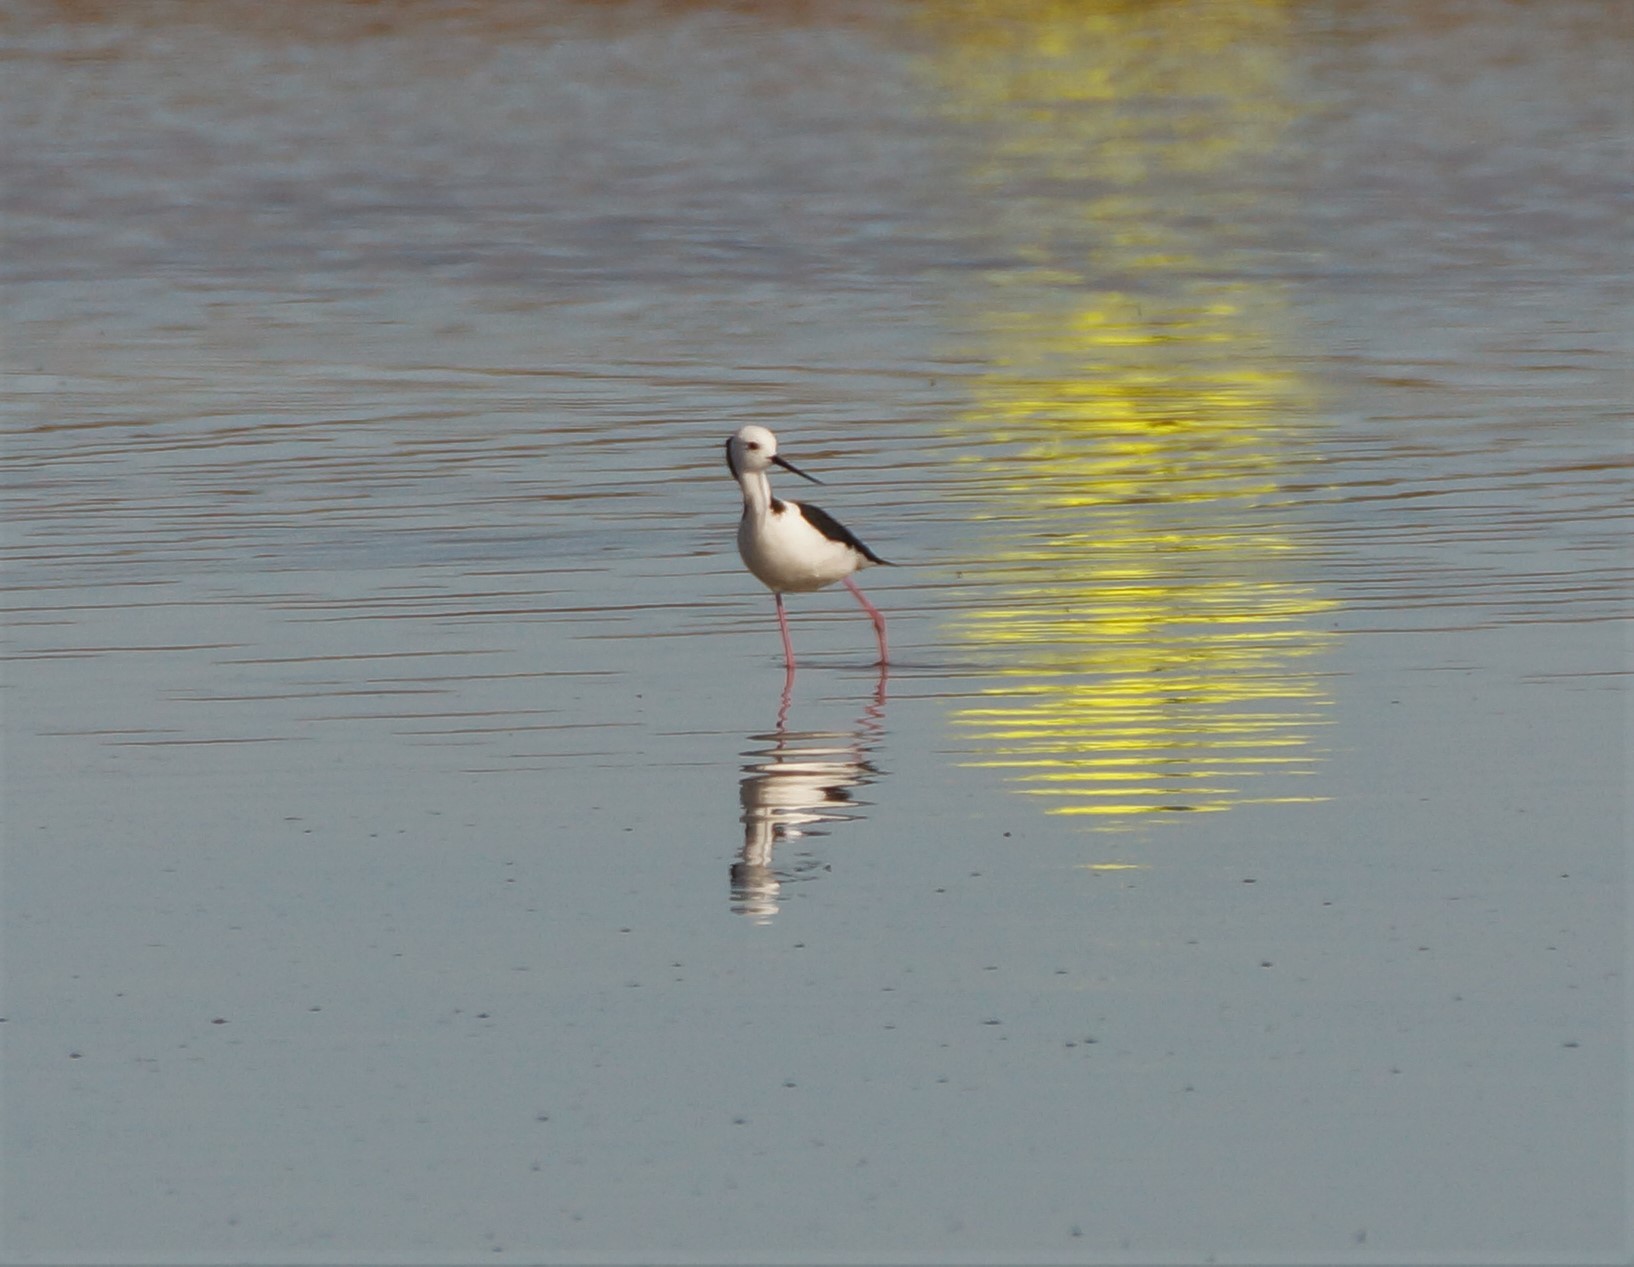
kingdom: Animalia
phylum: Chordata
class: Aves
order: Charadriiformes
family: Recurvirostridae
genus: Himantopus
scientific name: Himantopus leucocephalus
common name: White-headed stilt
